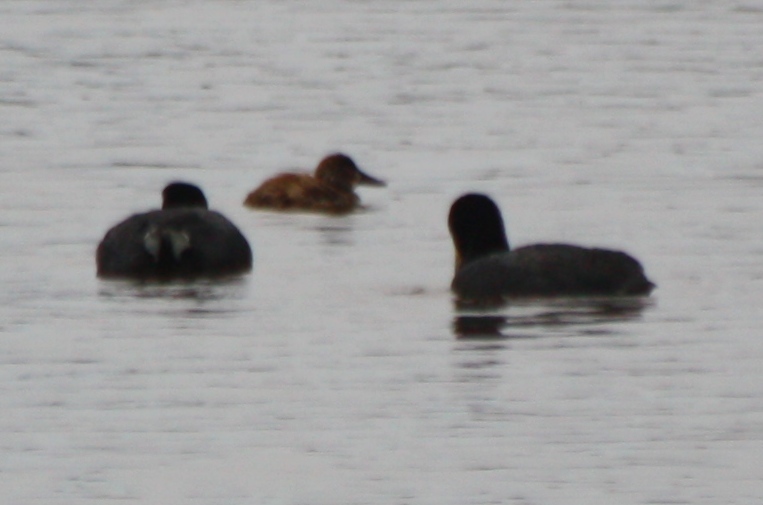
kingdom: Animalia
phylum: Chordata
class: Aves
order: Anseriformes
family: Anatidae
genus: Oxyura
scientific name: Oxyura ferruginea
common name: Andean duck
